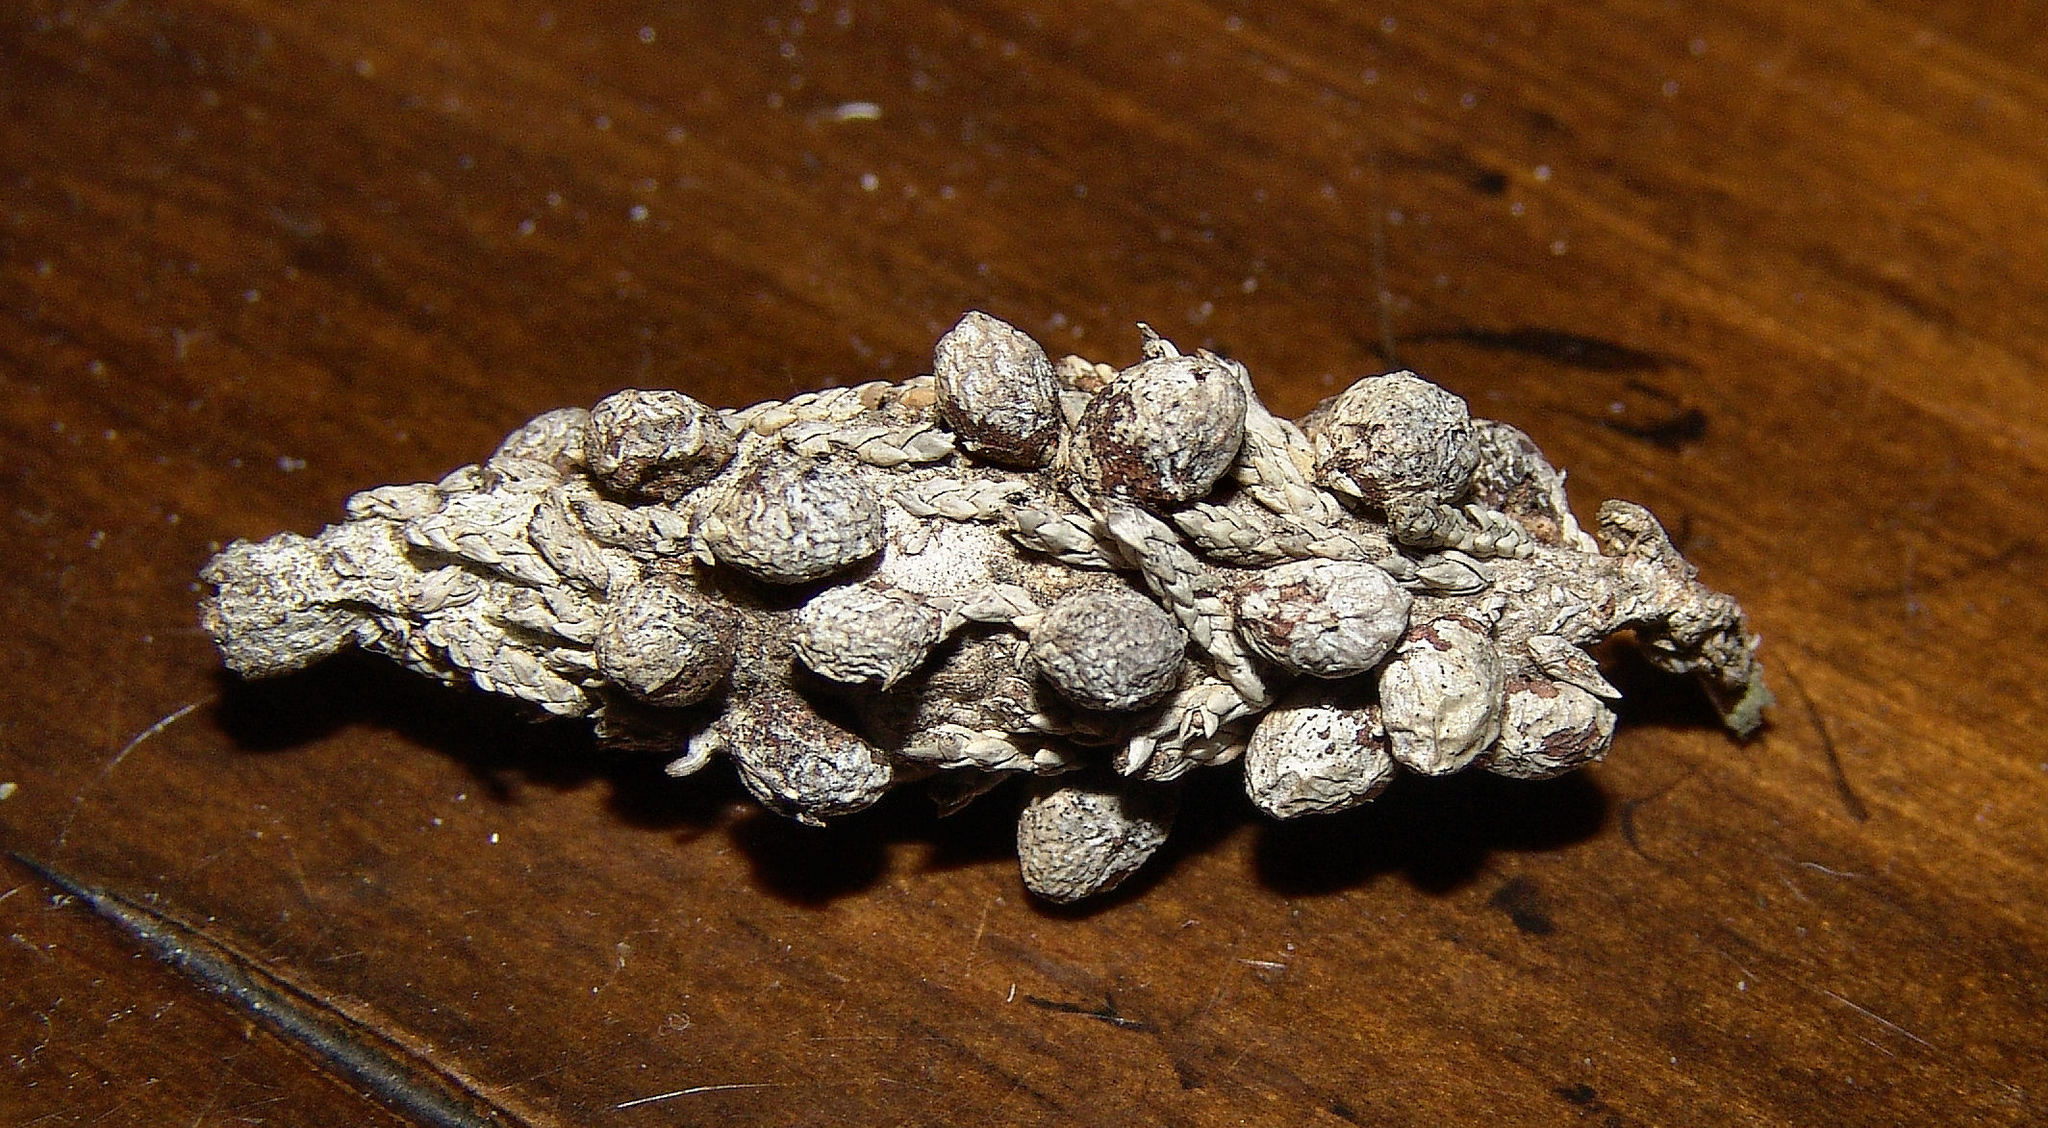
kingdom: Animalia
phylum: Arthropoda
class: Insecta
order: Lepidoptera
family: Psychidae
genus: Thyridopteryx
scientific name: Thyridopteryx ephemeraeformis
